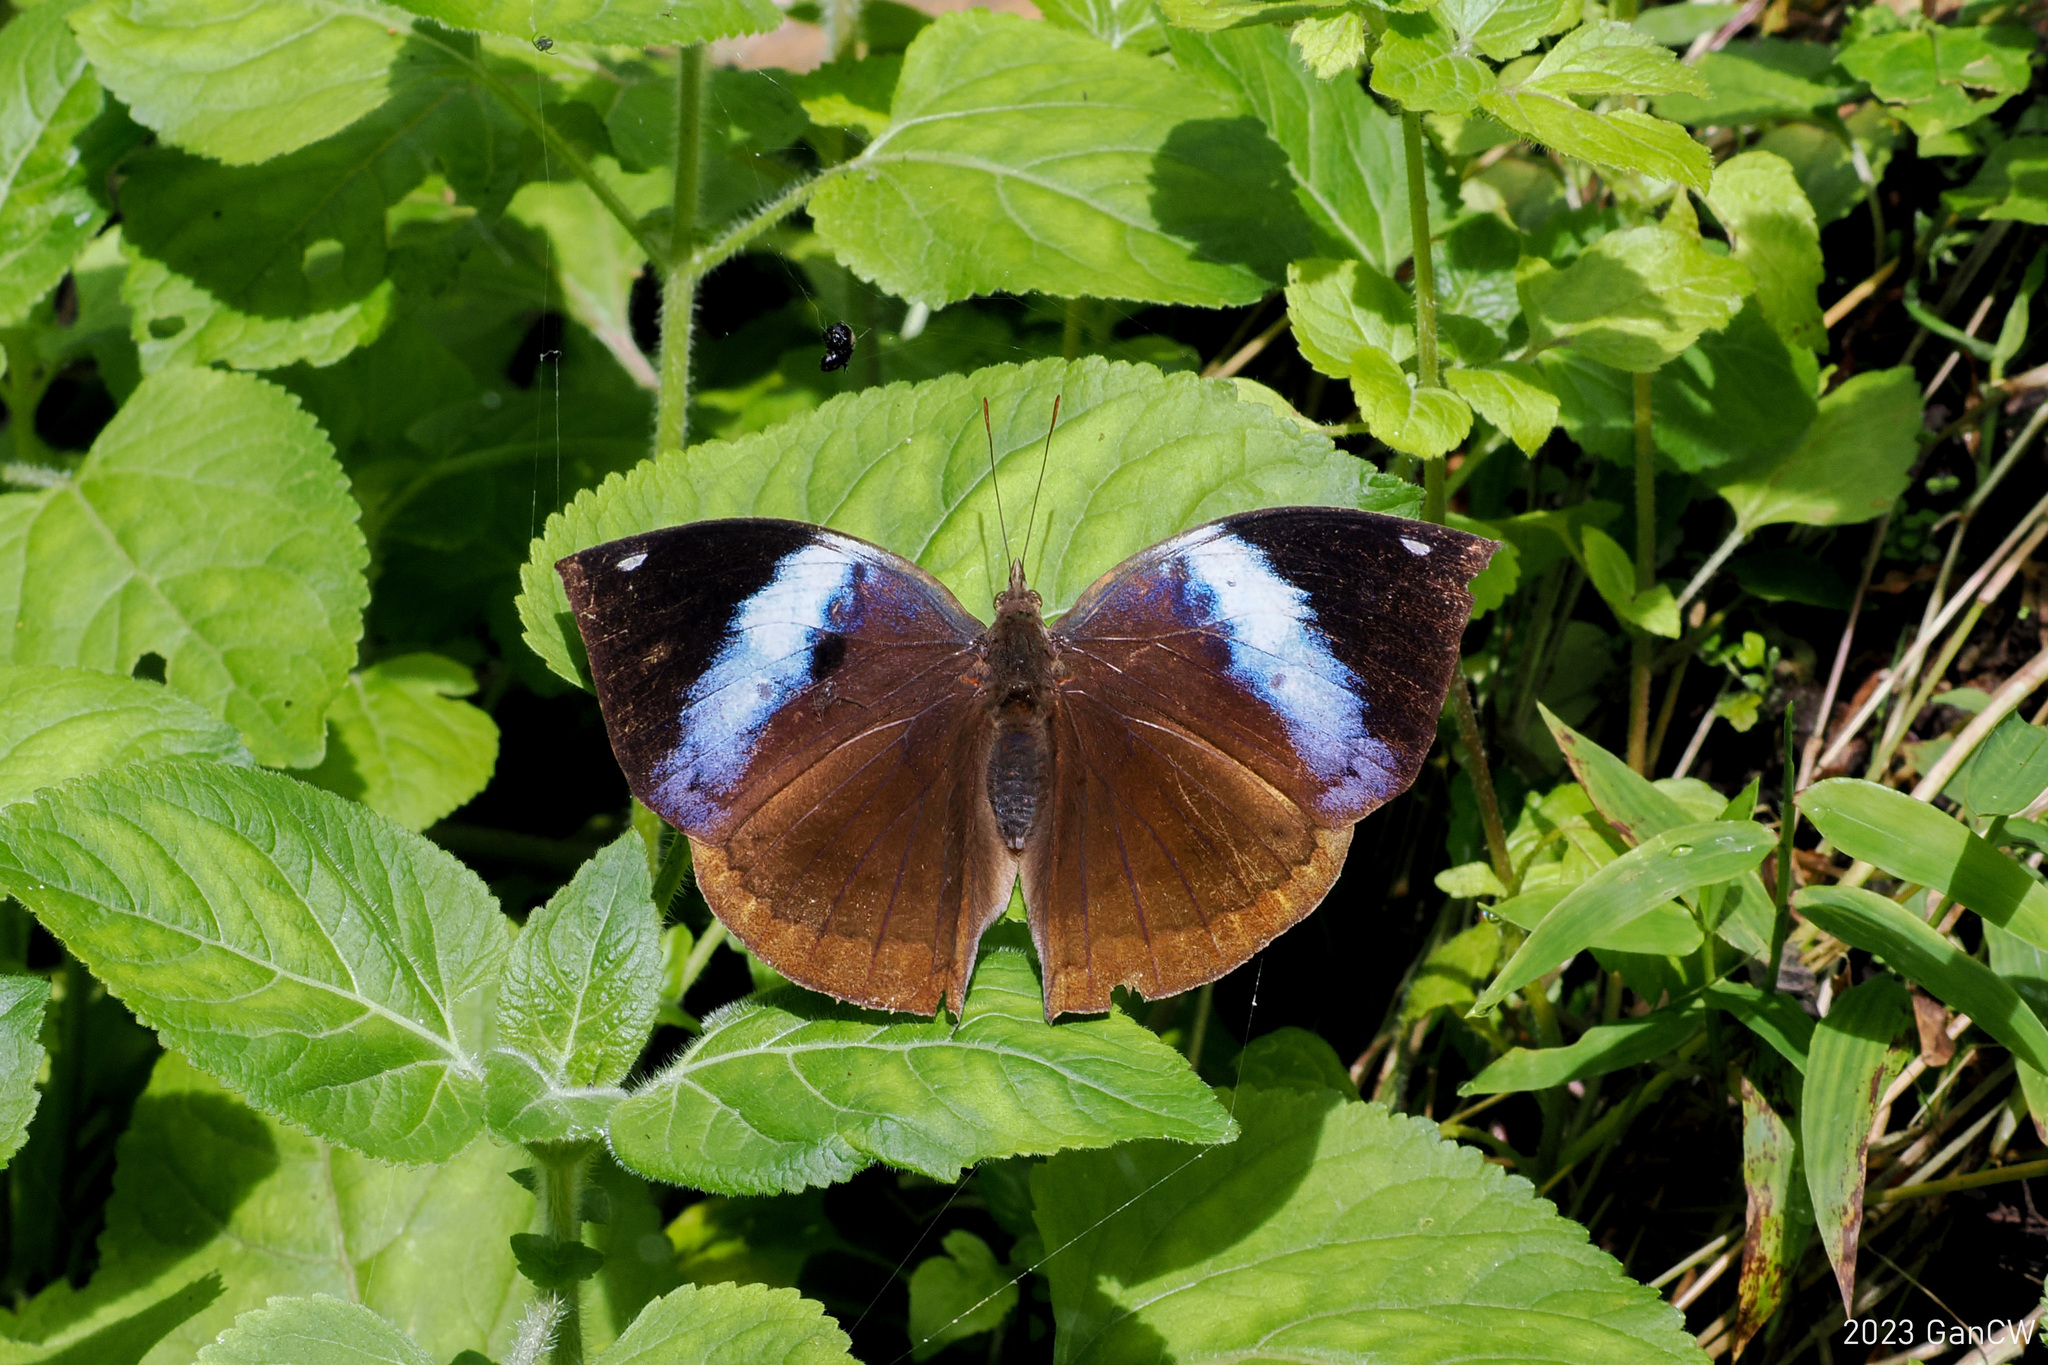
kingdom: Animalia
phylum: Arthropoda
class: Insecta
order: Lepidoptera
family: Nymphalidae
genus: Kallima
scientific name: Kallima spiridiva
